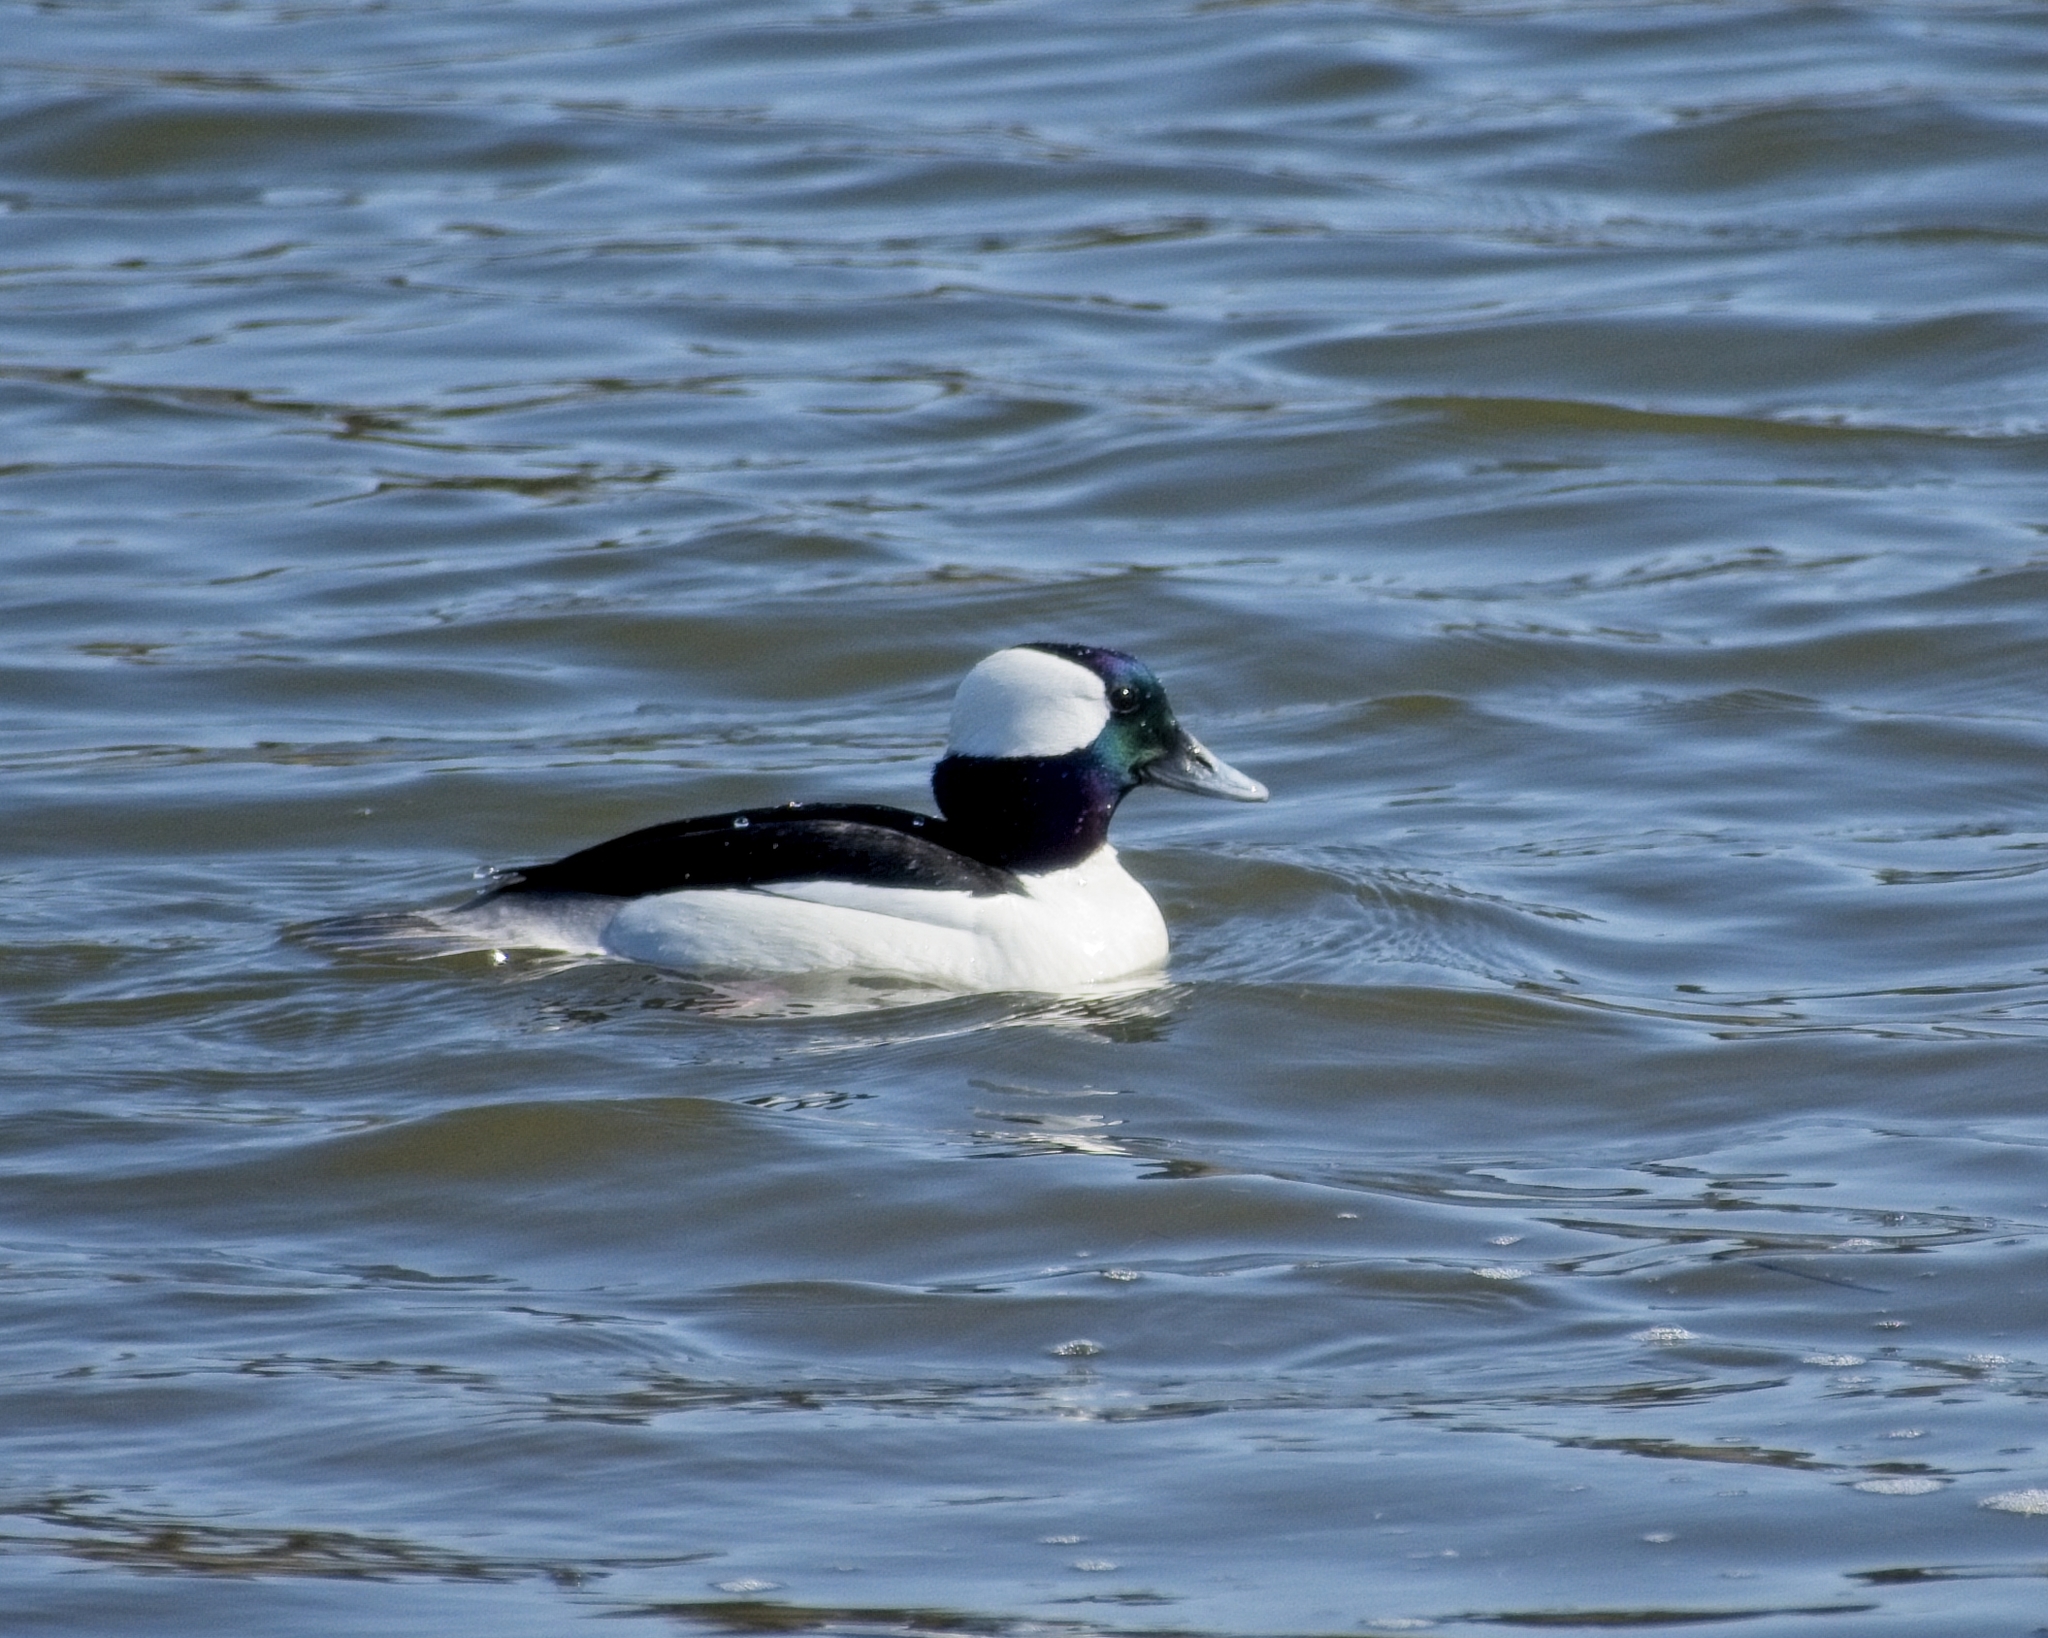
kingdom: Animalia
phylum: Chordata
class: Aves
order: Anseriformes
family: Anatidae
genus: Bucephala
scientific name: Bucephala albeola
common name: Bufflehead
